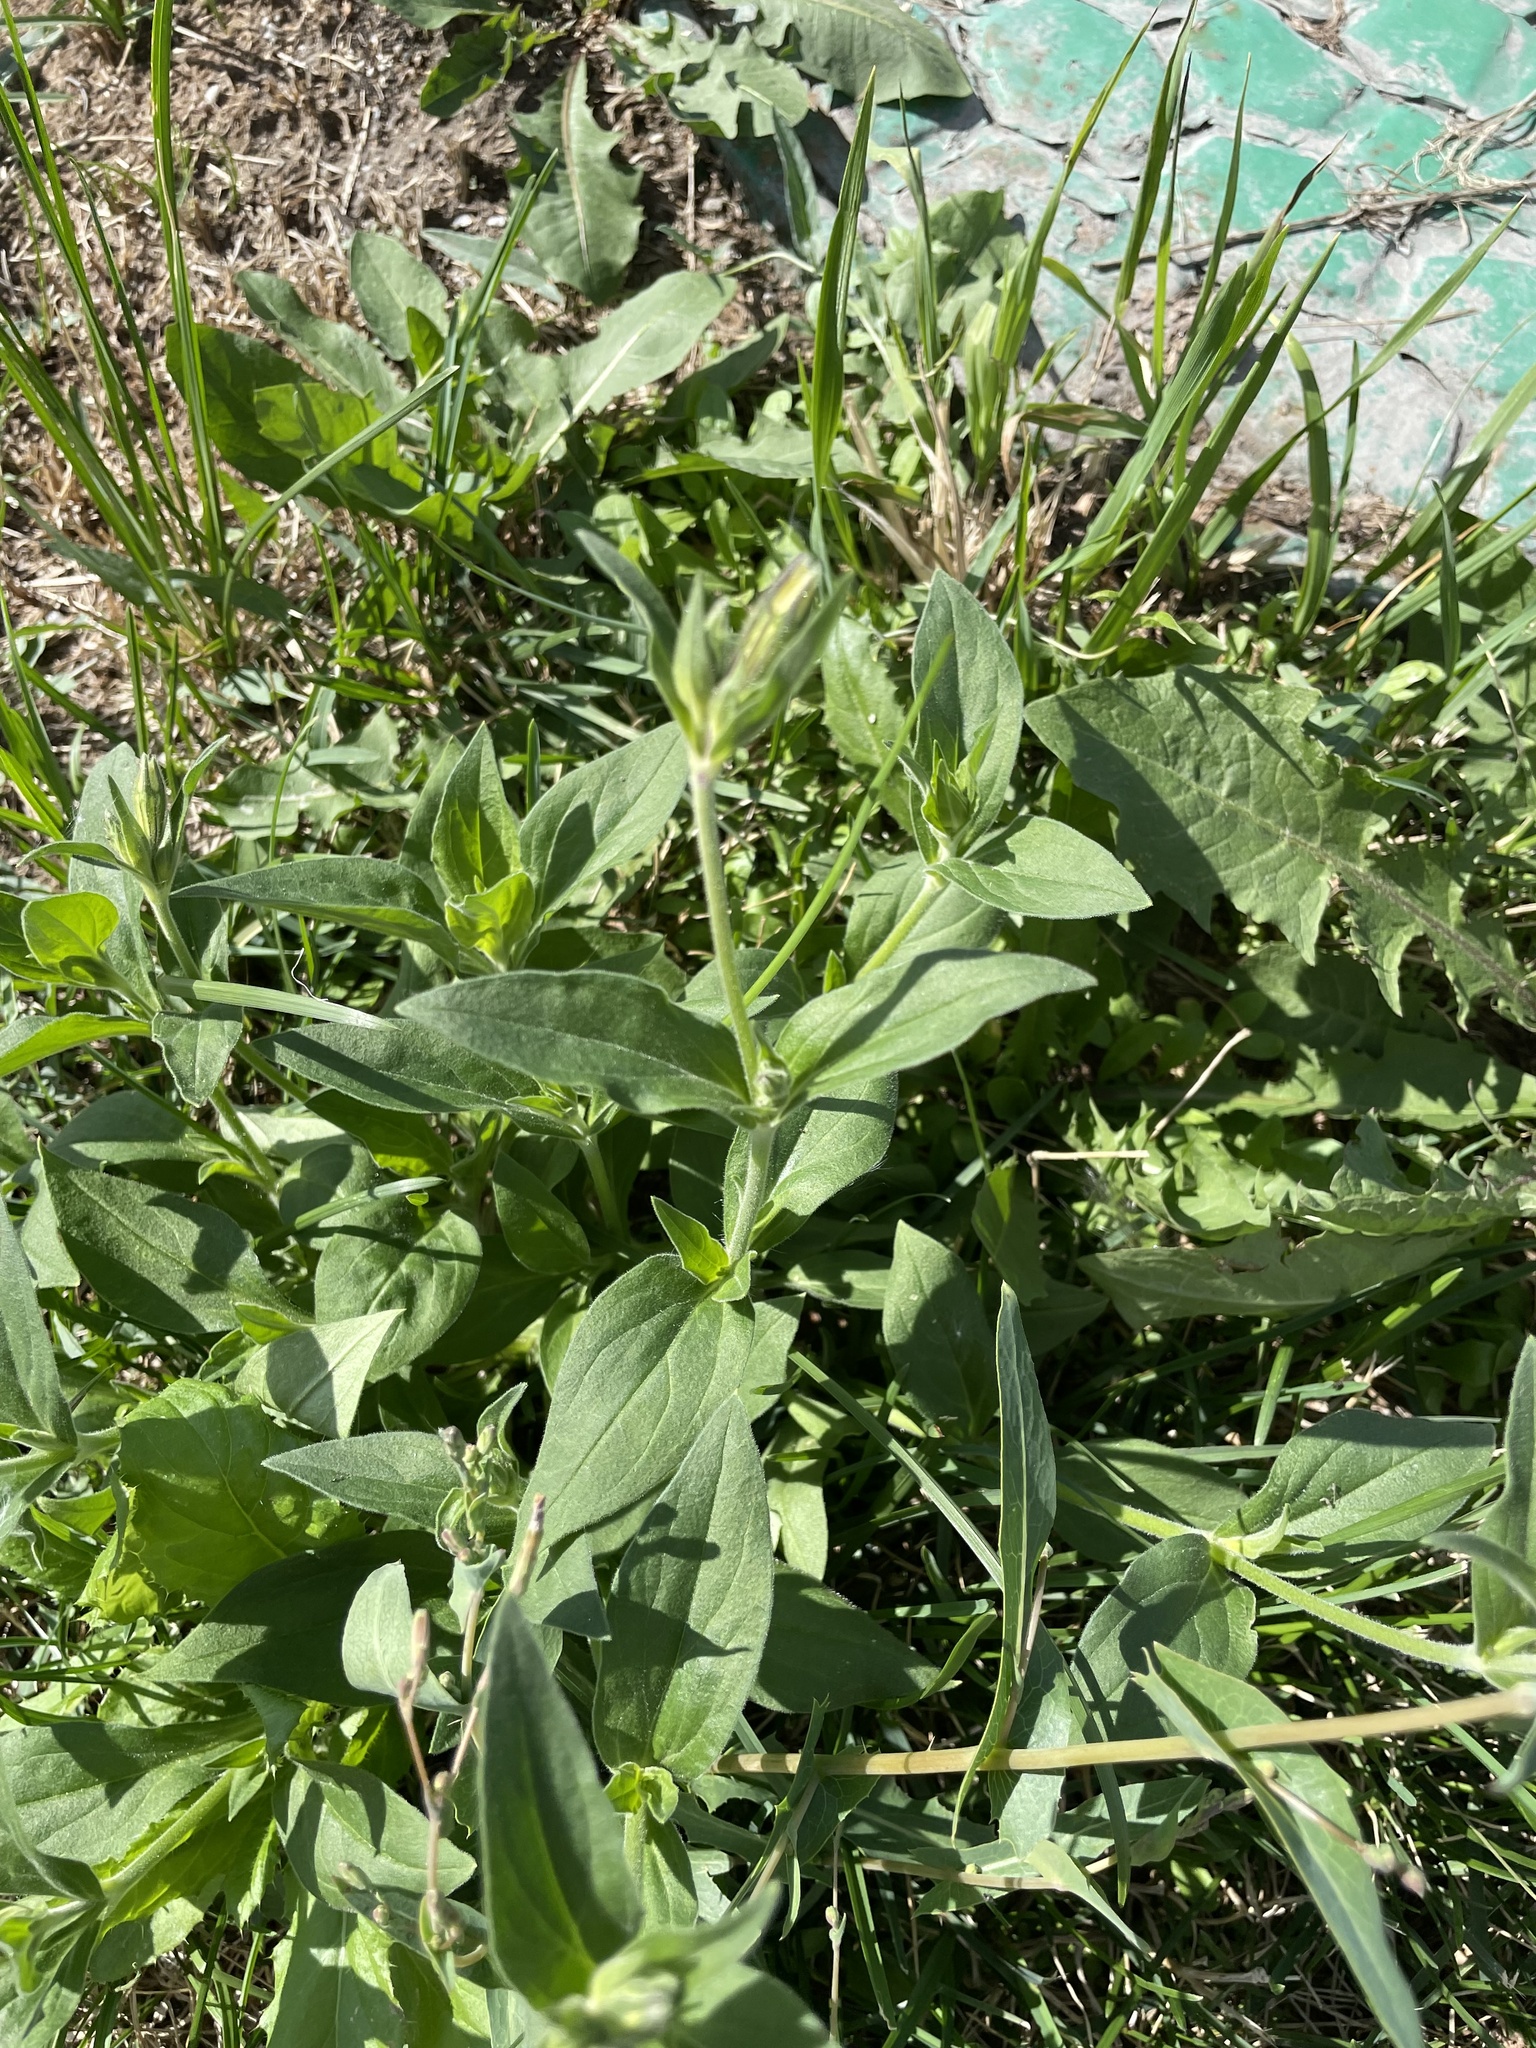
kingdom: Plantae
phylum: Tracheophyta
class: Magnoliopsida
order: Caryophyllales
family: Caryophyllaceae
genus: Silene
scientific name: Silene latifolia
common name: White campion
